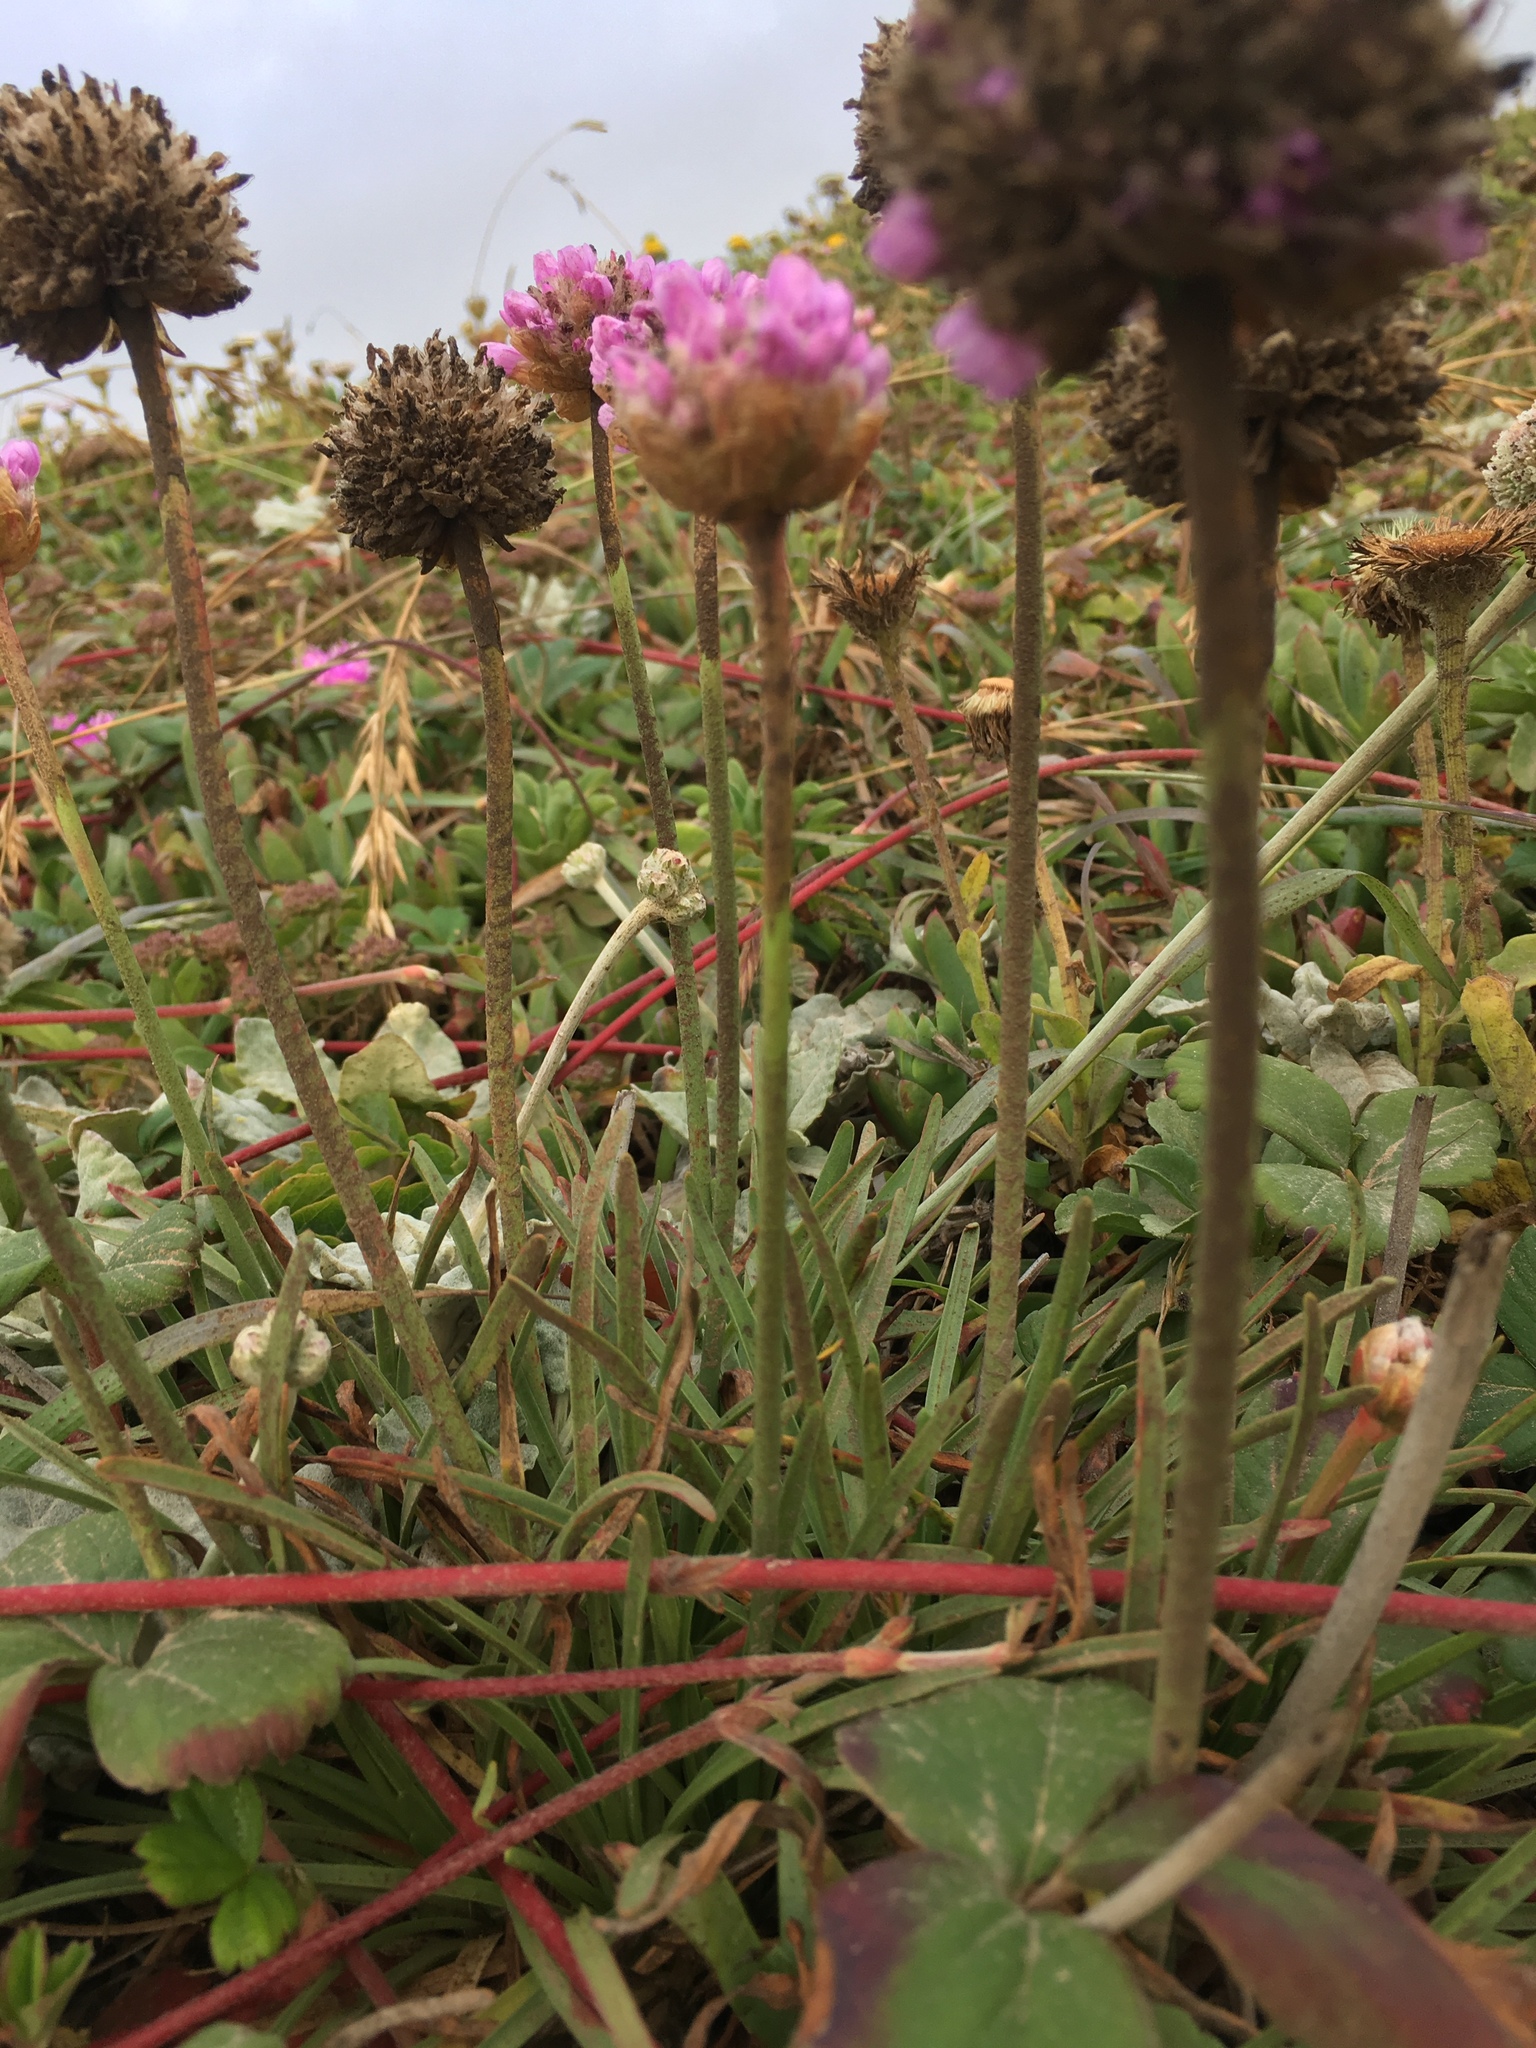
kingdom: Plantae
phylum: Tracheophyta
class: Magnoliopsida
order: Caryophyllales
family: Plumbaginaceae
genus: Armeria
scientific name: Armeria maritima
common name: Thrift
